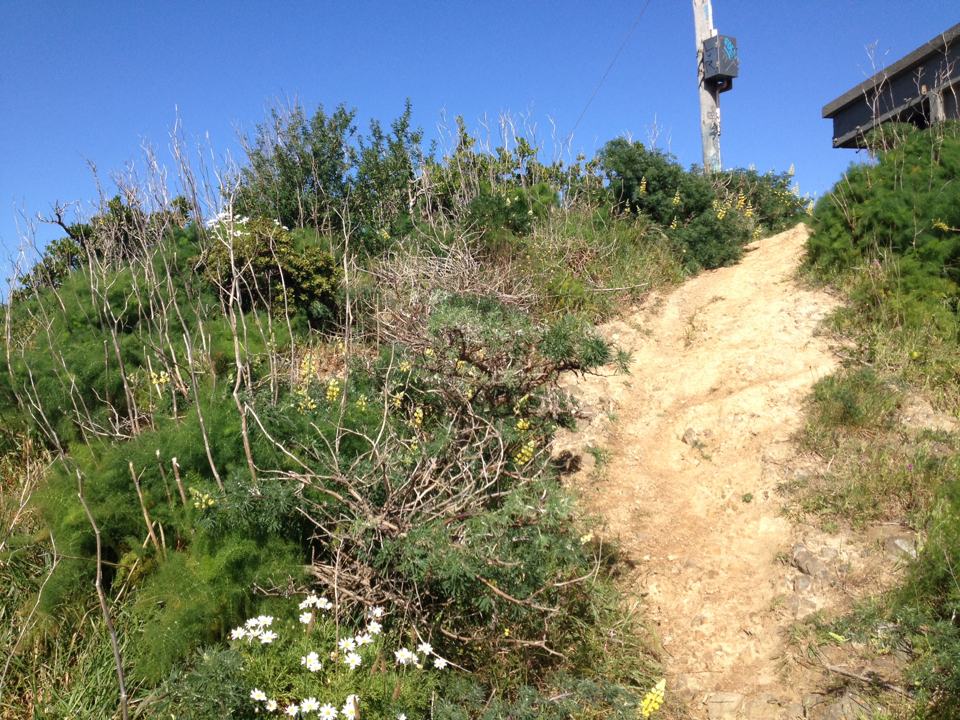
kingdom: Plantae
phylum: Tracheophyta
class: Magnoliopsida
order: Fabales
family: Fabaceae
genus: Lupinus
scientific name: Lupinus arboreus
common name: Yellow bush lupine
